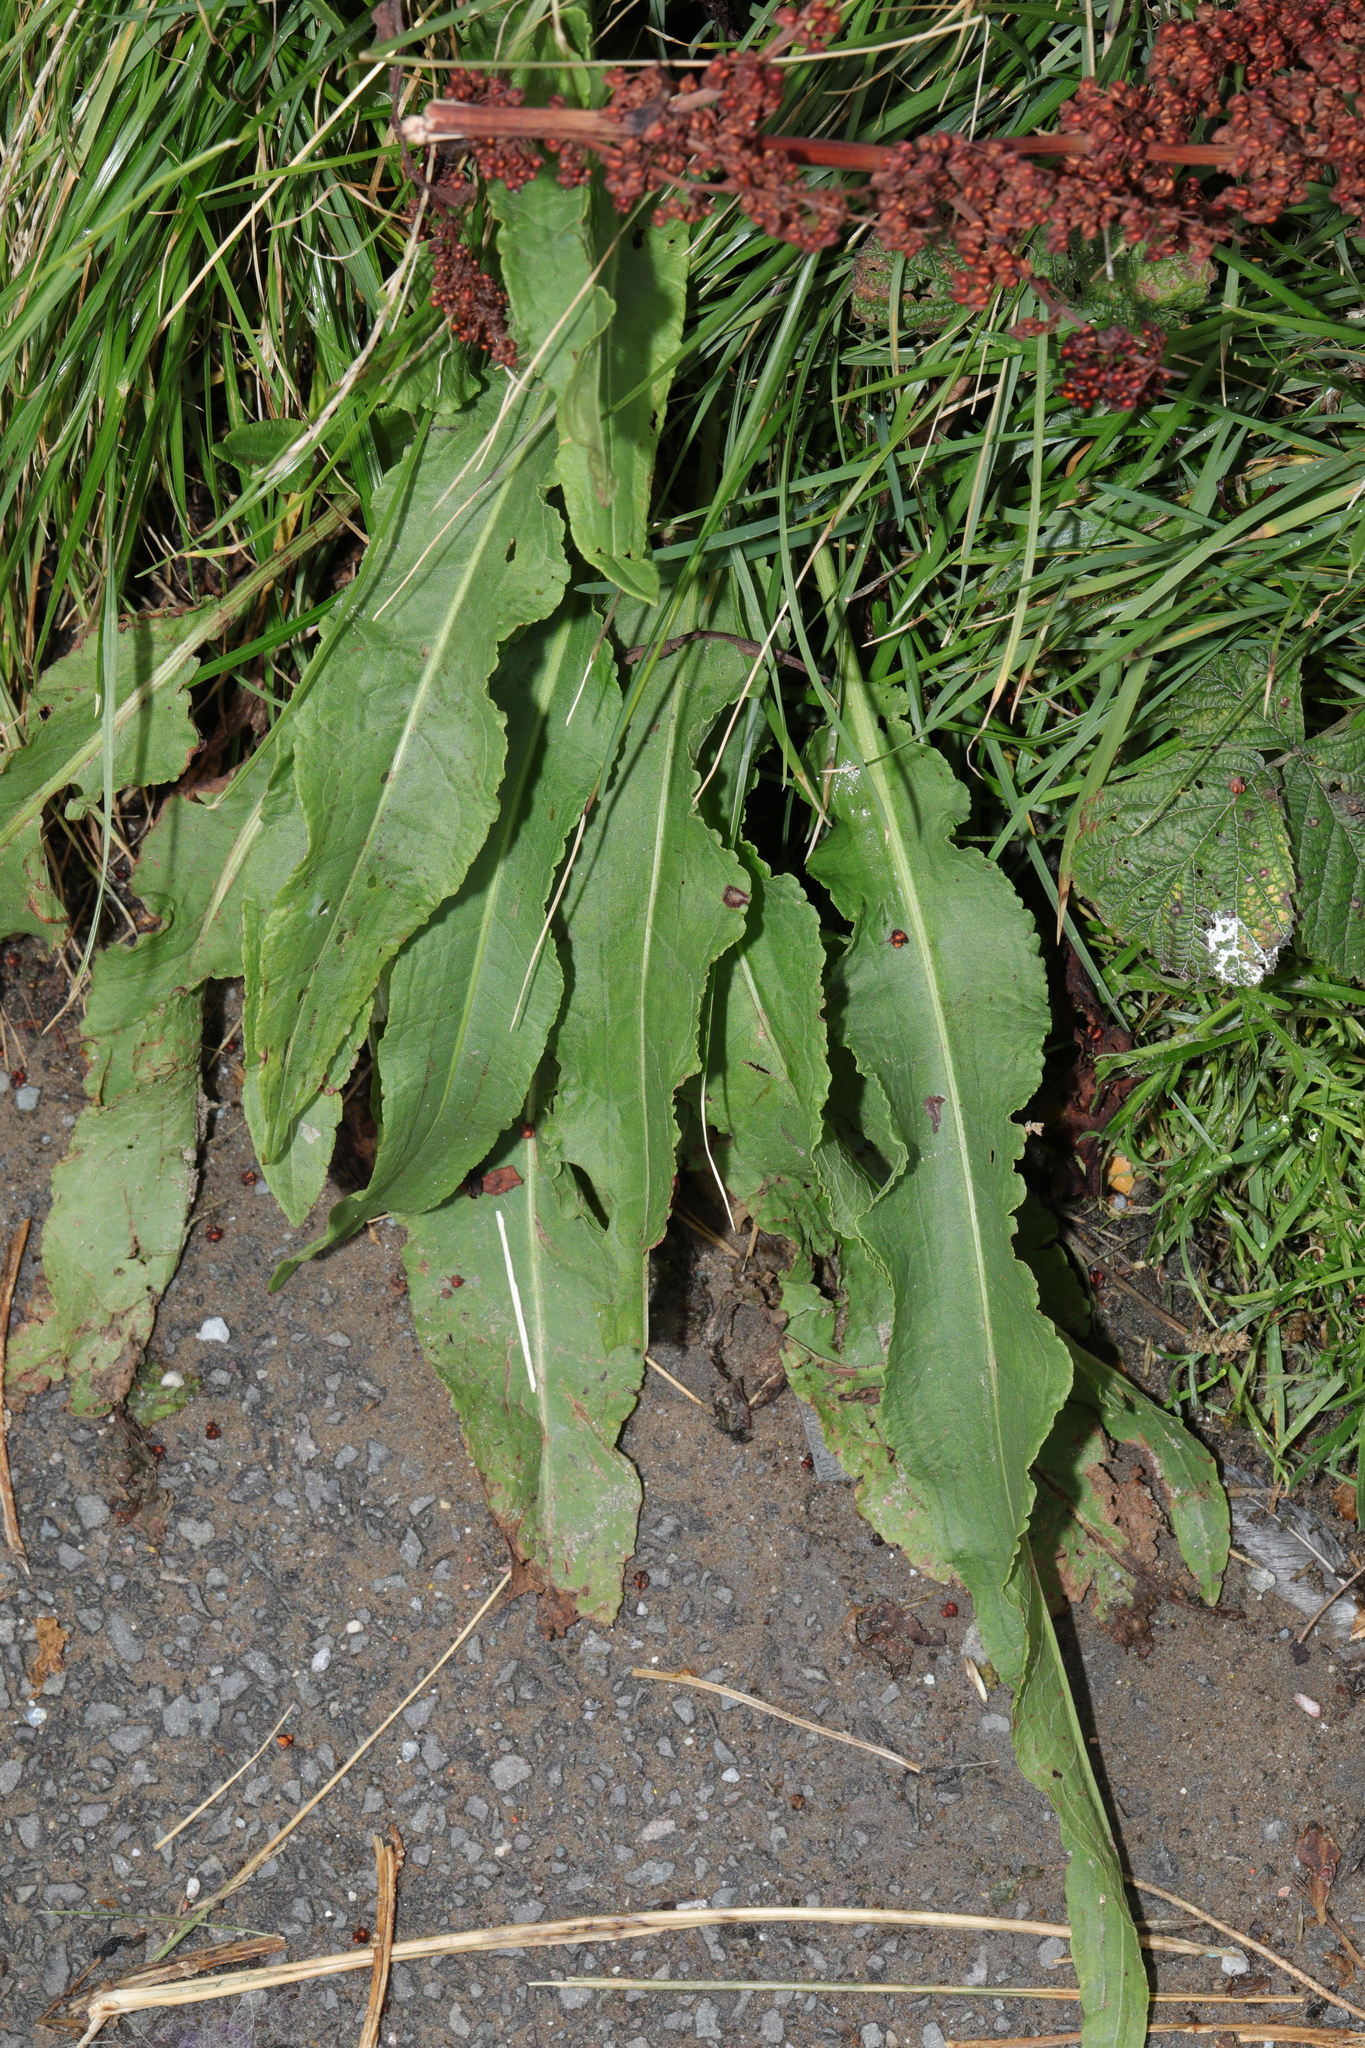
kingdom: Plantae
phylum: Tracheophyta
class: Magnoliopsida
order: Caryophyllales
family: Polygonaceae
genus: Rumex
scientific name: Rumex crispus
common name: Curled dock
